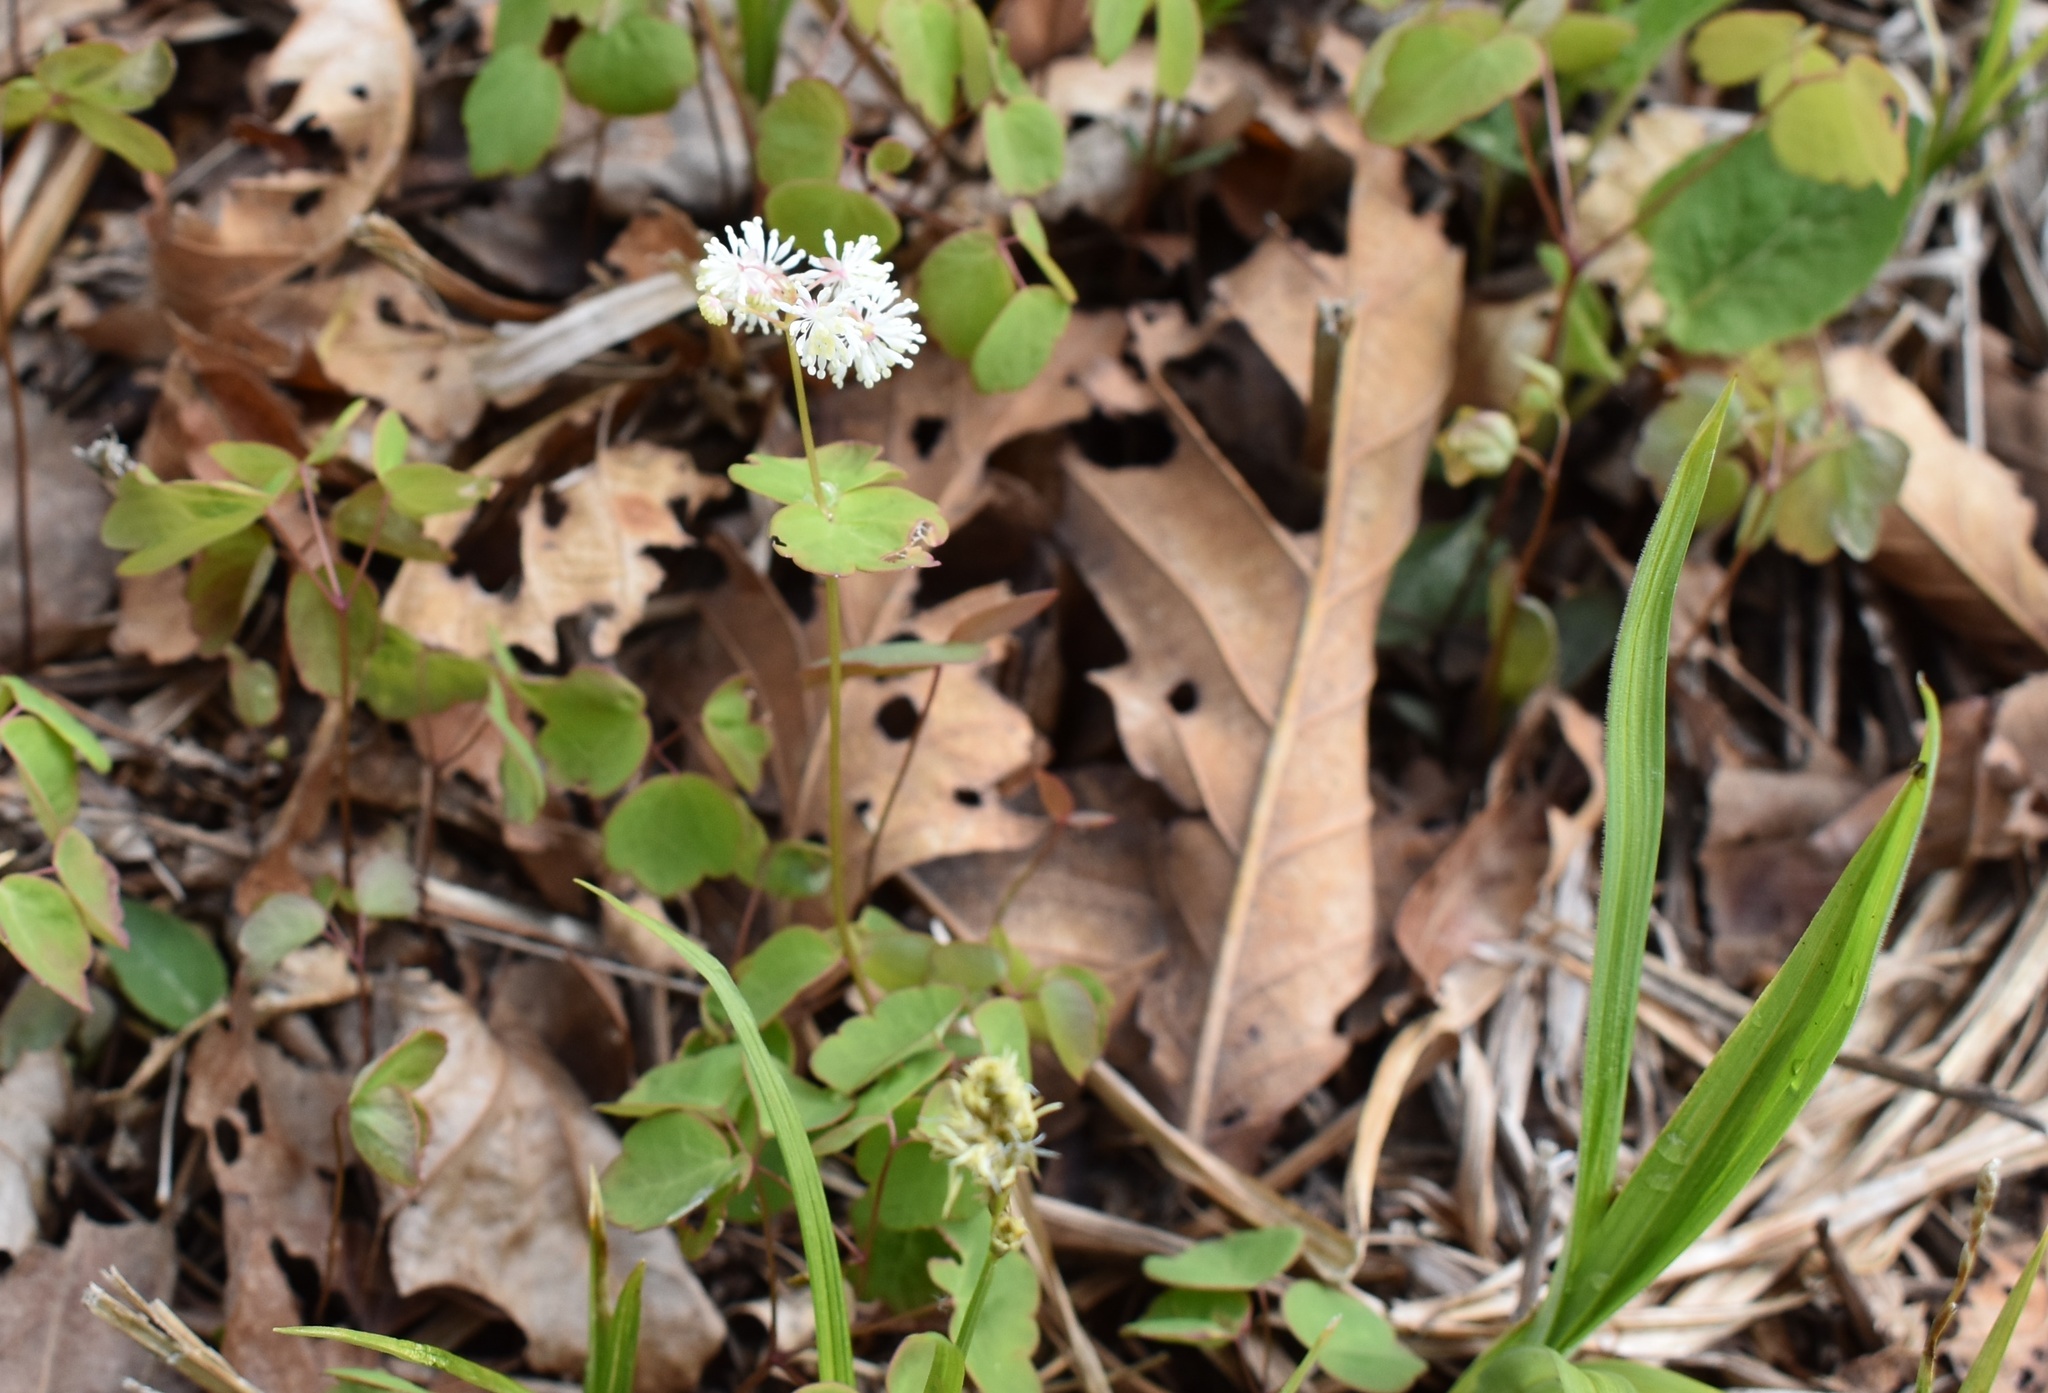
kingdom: Plantae
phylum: Tracheophyta
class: Magnoliopsida
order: Ranunculales
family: Ranunculaceae
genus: Thalictrum
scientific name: Thalictrum filamentosum
